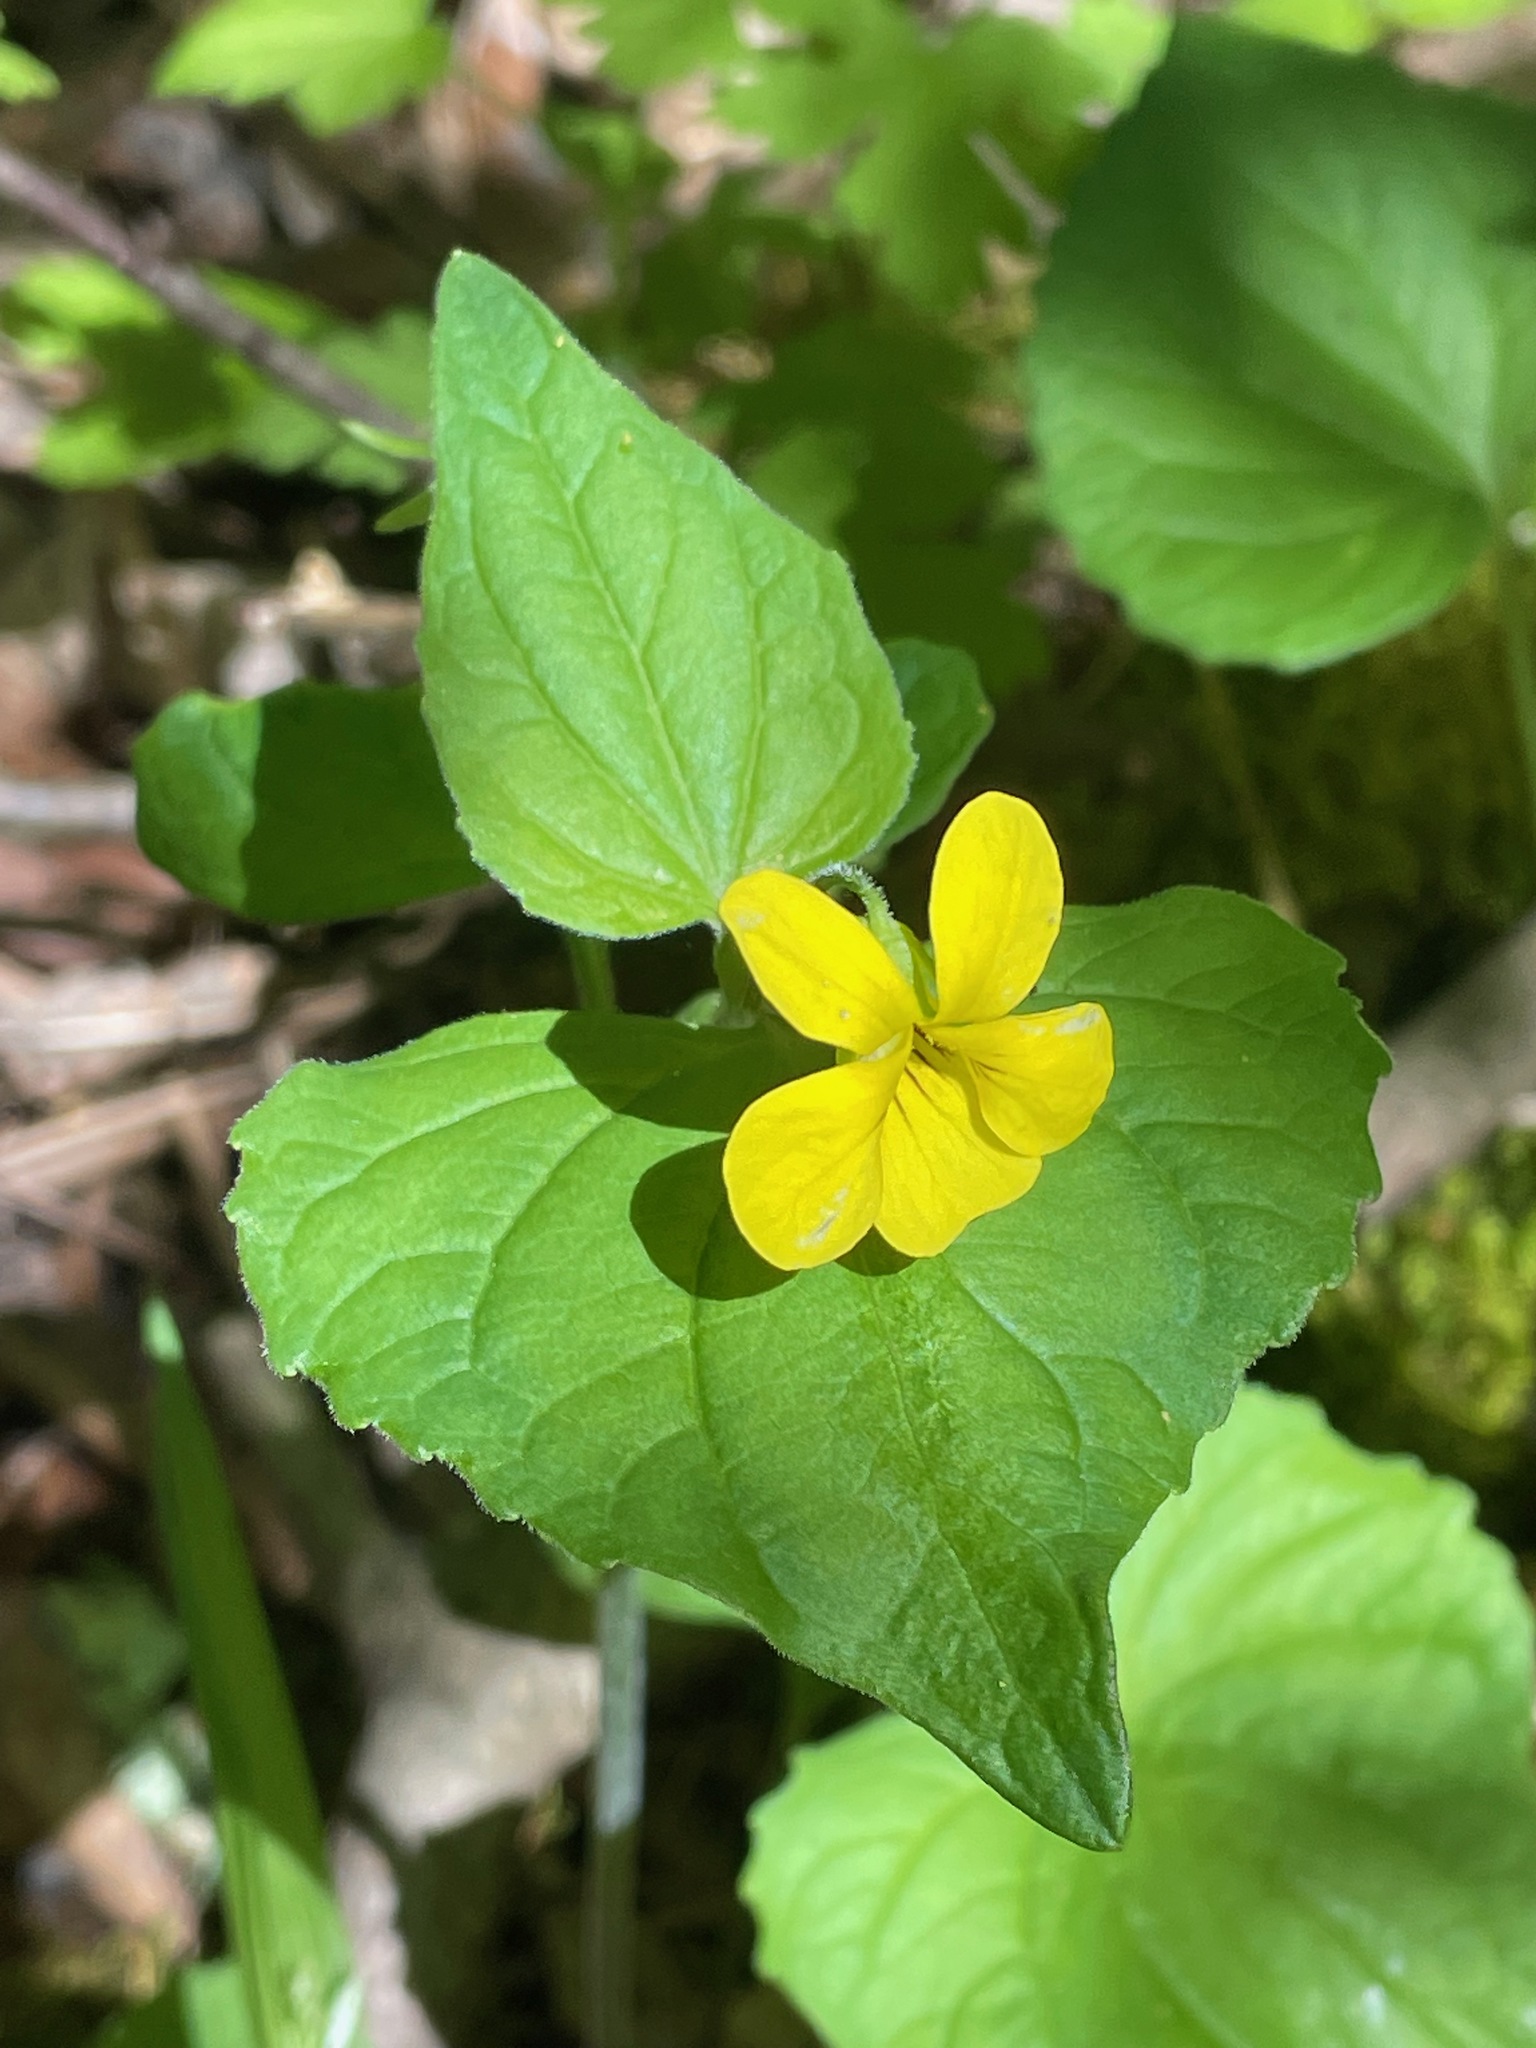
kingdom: Plantae
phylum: Tracheophyta
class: Magnoliopsida
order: Malpighiales
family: Violaceae
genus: Viola
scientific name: Viola eriocarpa
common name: Smooth yellow violet
